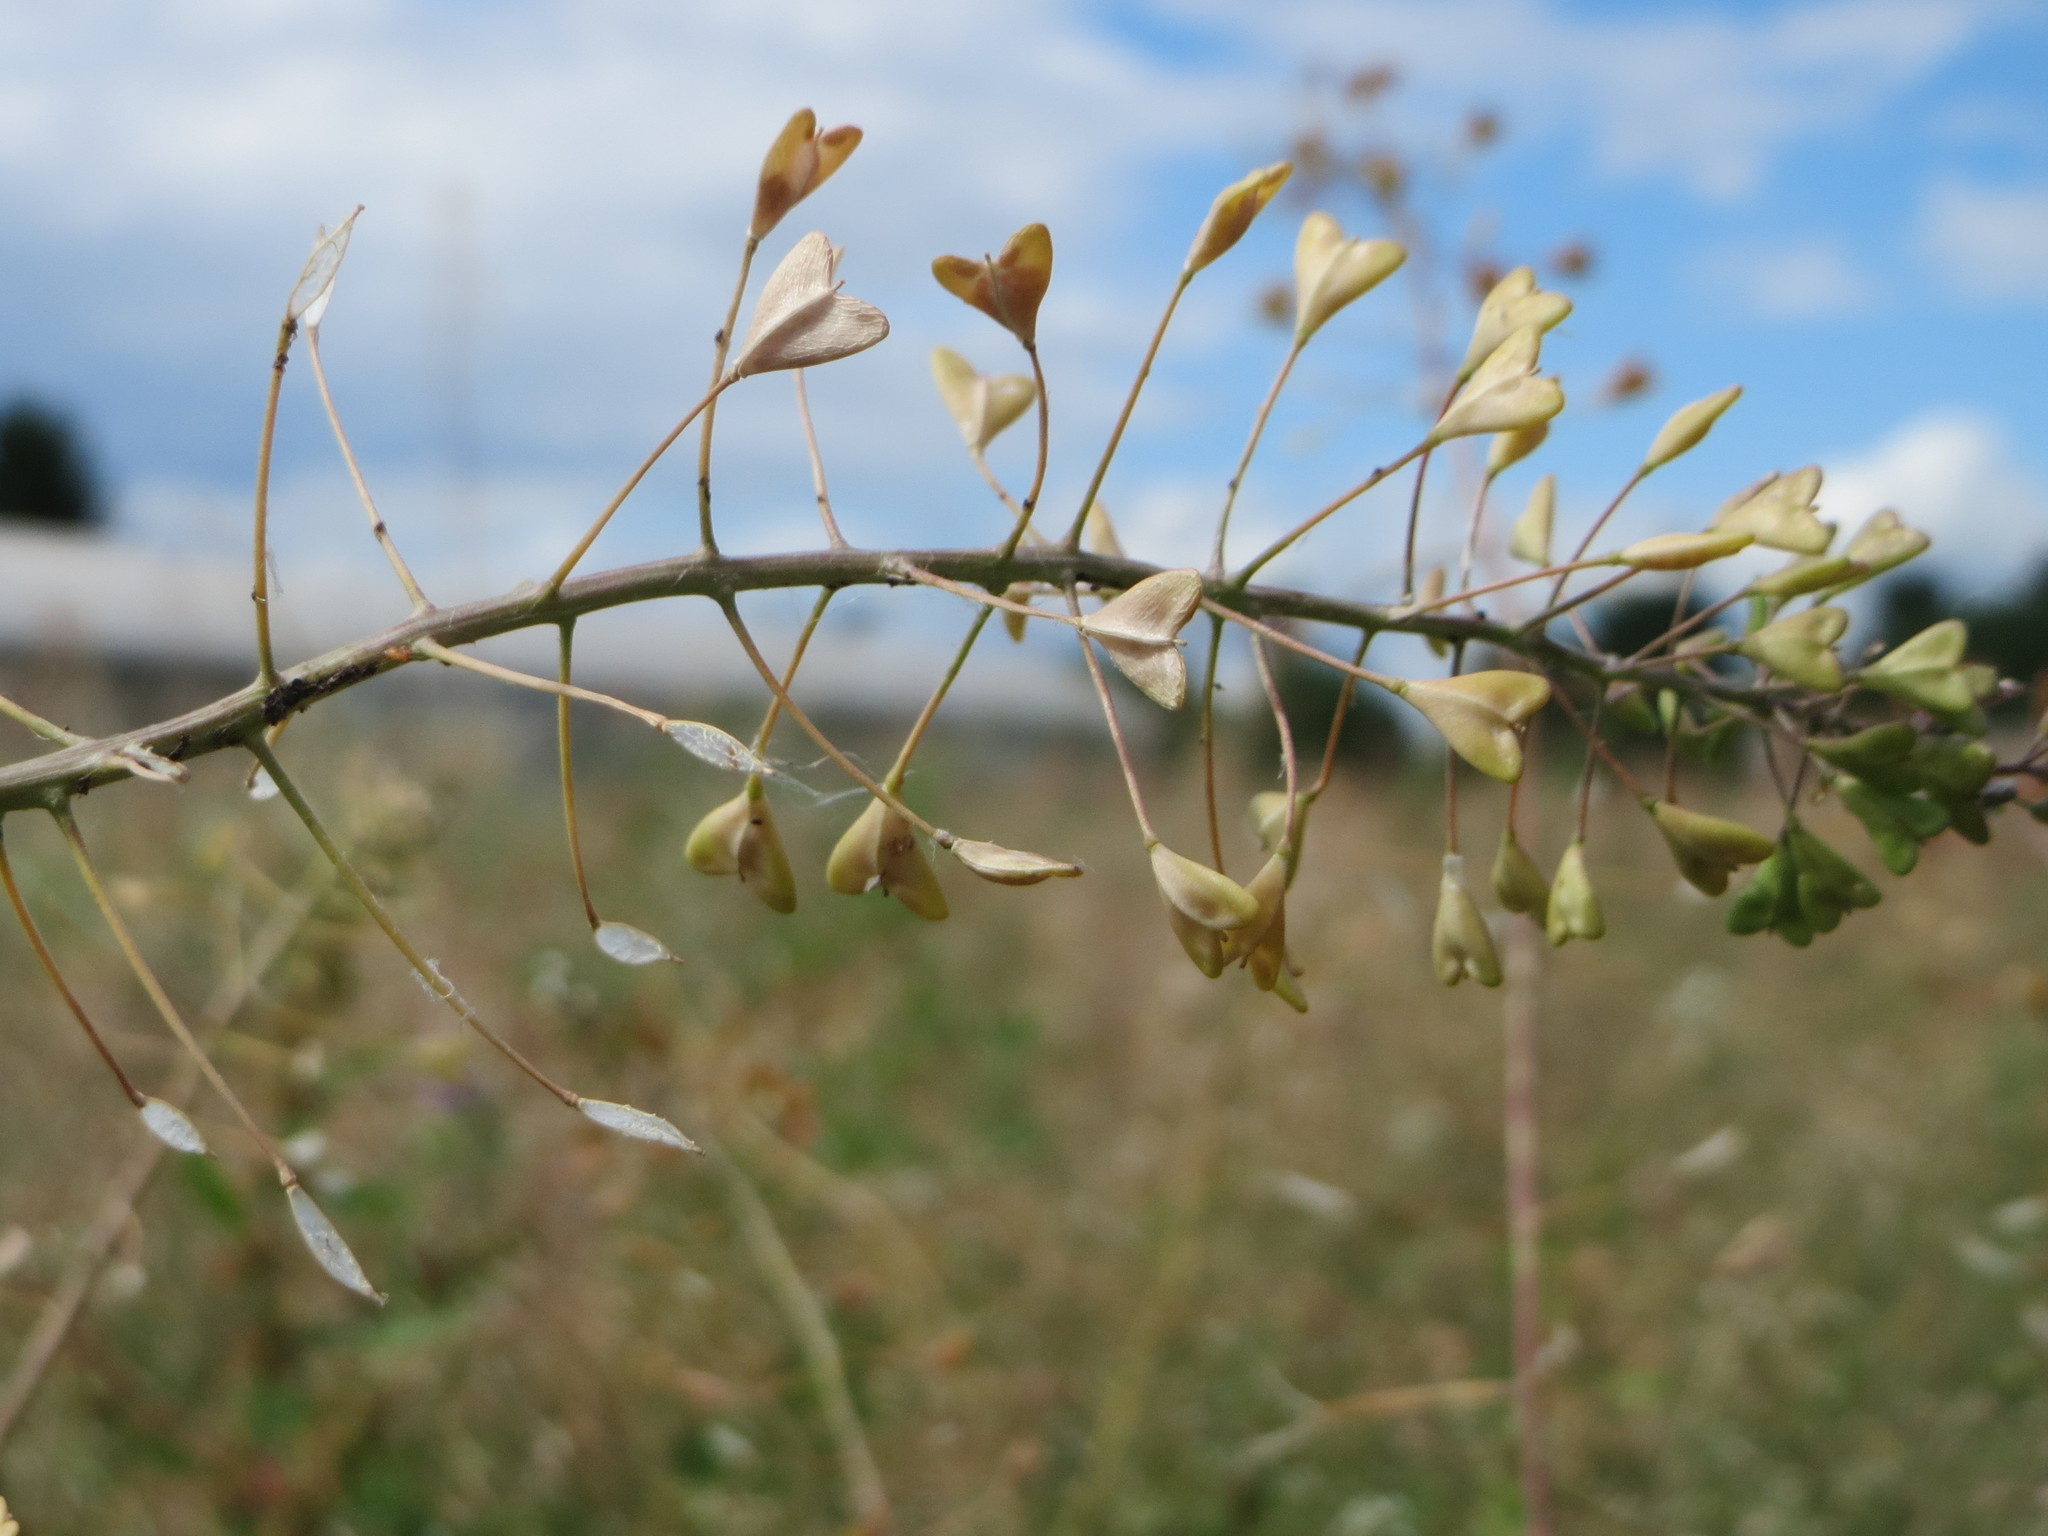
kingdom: Plantae
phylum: Tracheophyta
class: Magnoliopsida
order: Brassicales
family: Brassicaceae
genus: Capsella
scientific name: Capsella bursa-pastoris
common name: Shepherd's purse
